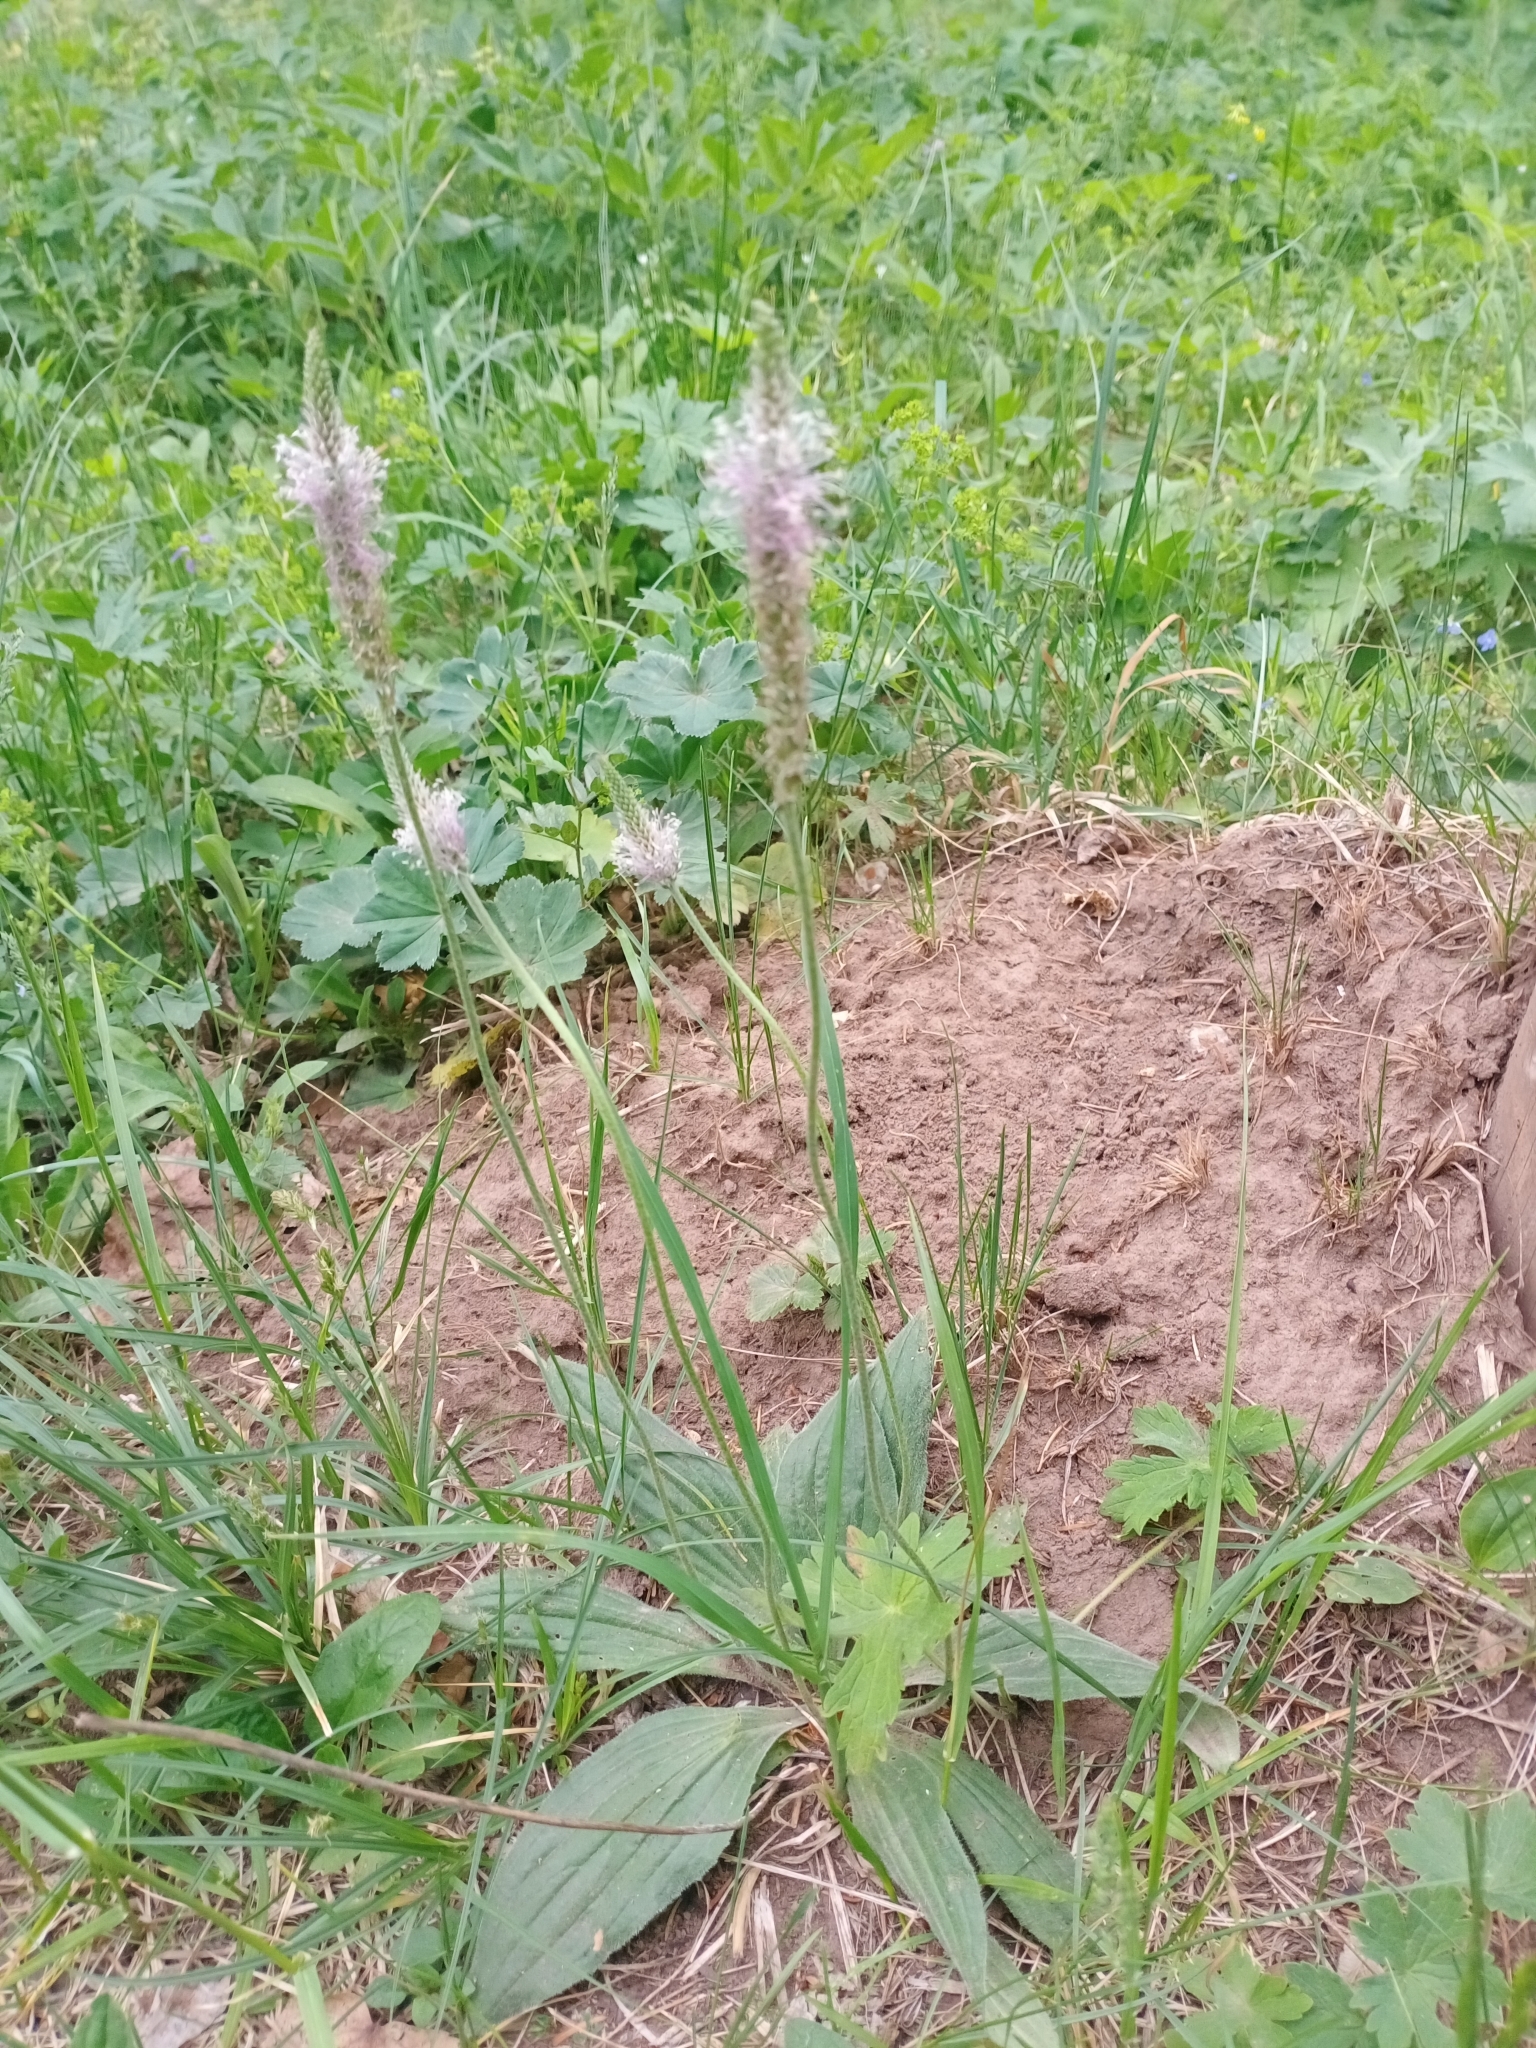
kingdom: Plantae
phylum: Tracheophyta
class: Magnoliopsida
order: Lamiales
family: Plantaginaceae
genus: Plantago
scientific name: Plantago media
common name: Hoary plantain
